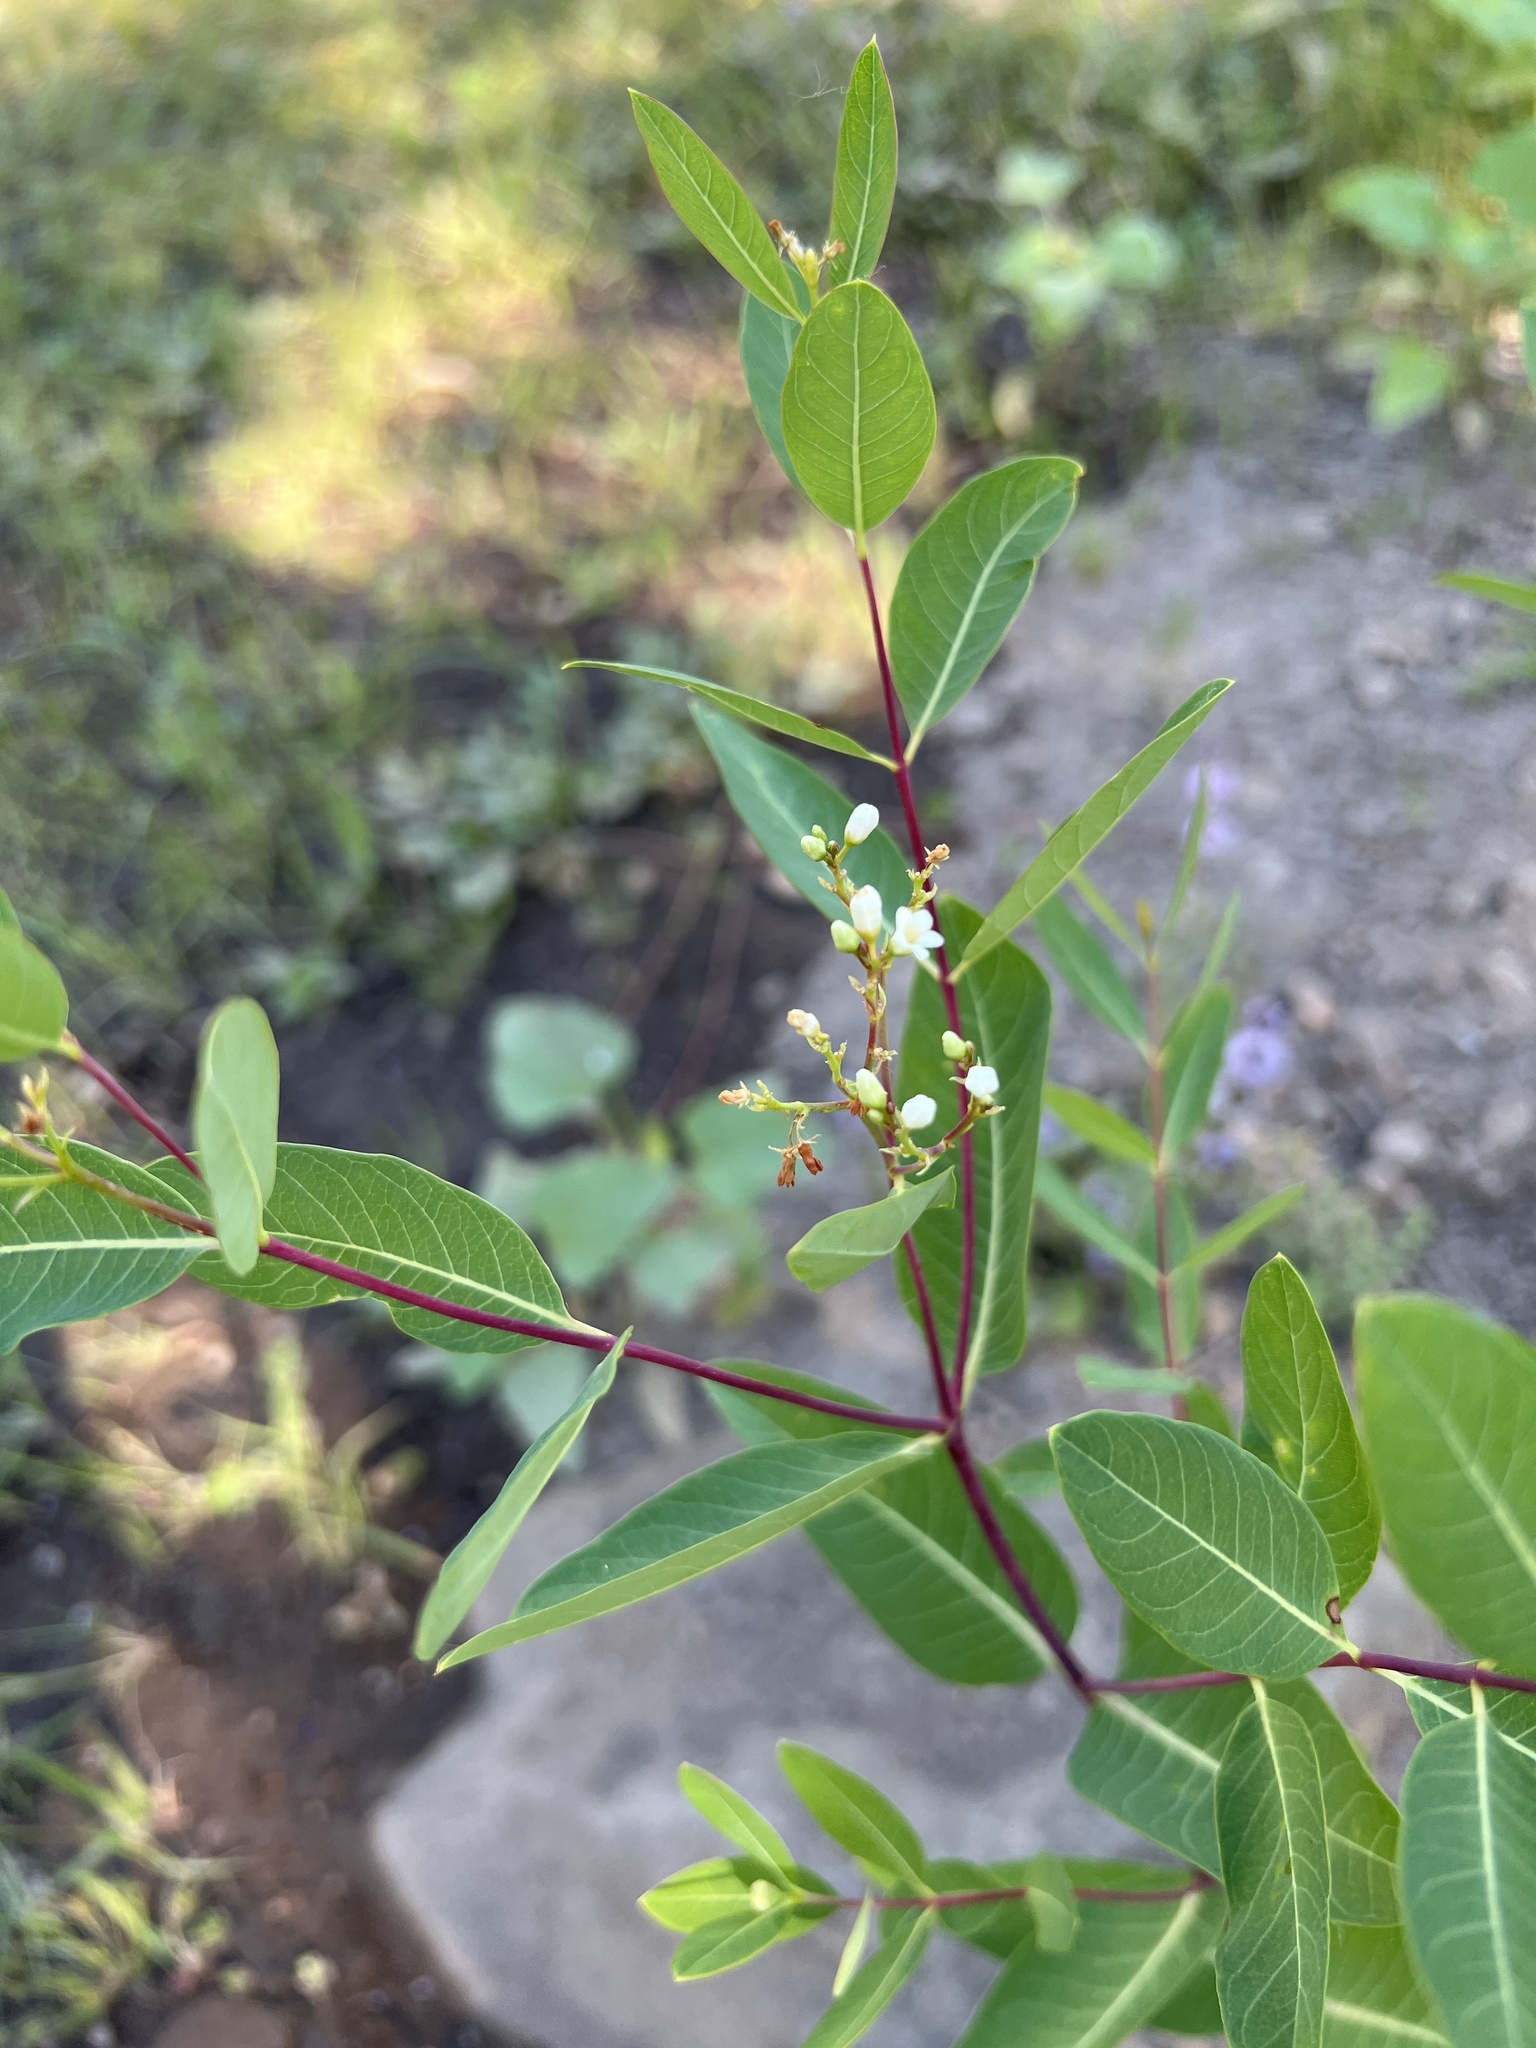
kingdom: Plantae
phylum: Tracheophyta
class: Magnoliopsida
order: Gentianales
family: Apocynaceae
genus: Apocynum
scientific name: Apocynum cannabinum
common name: Hemp dogbane
